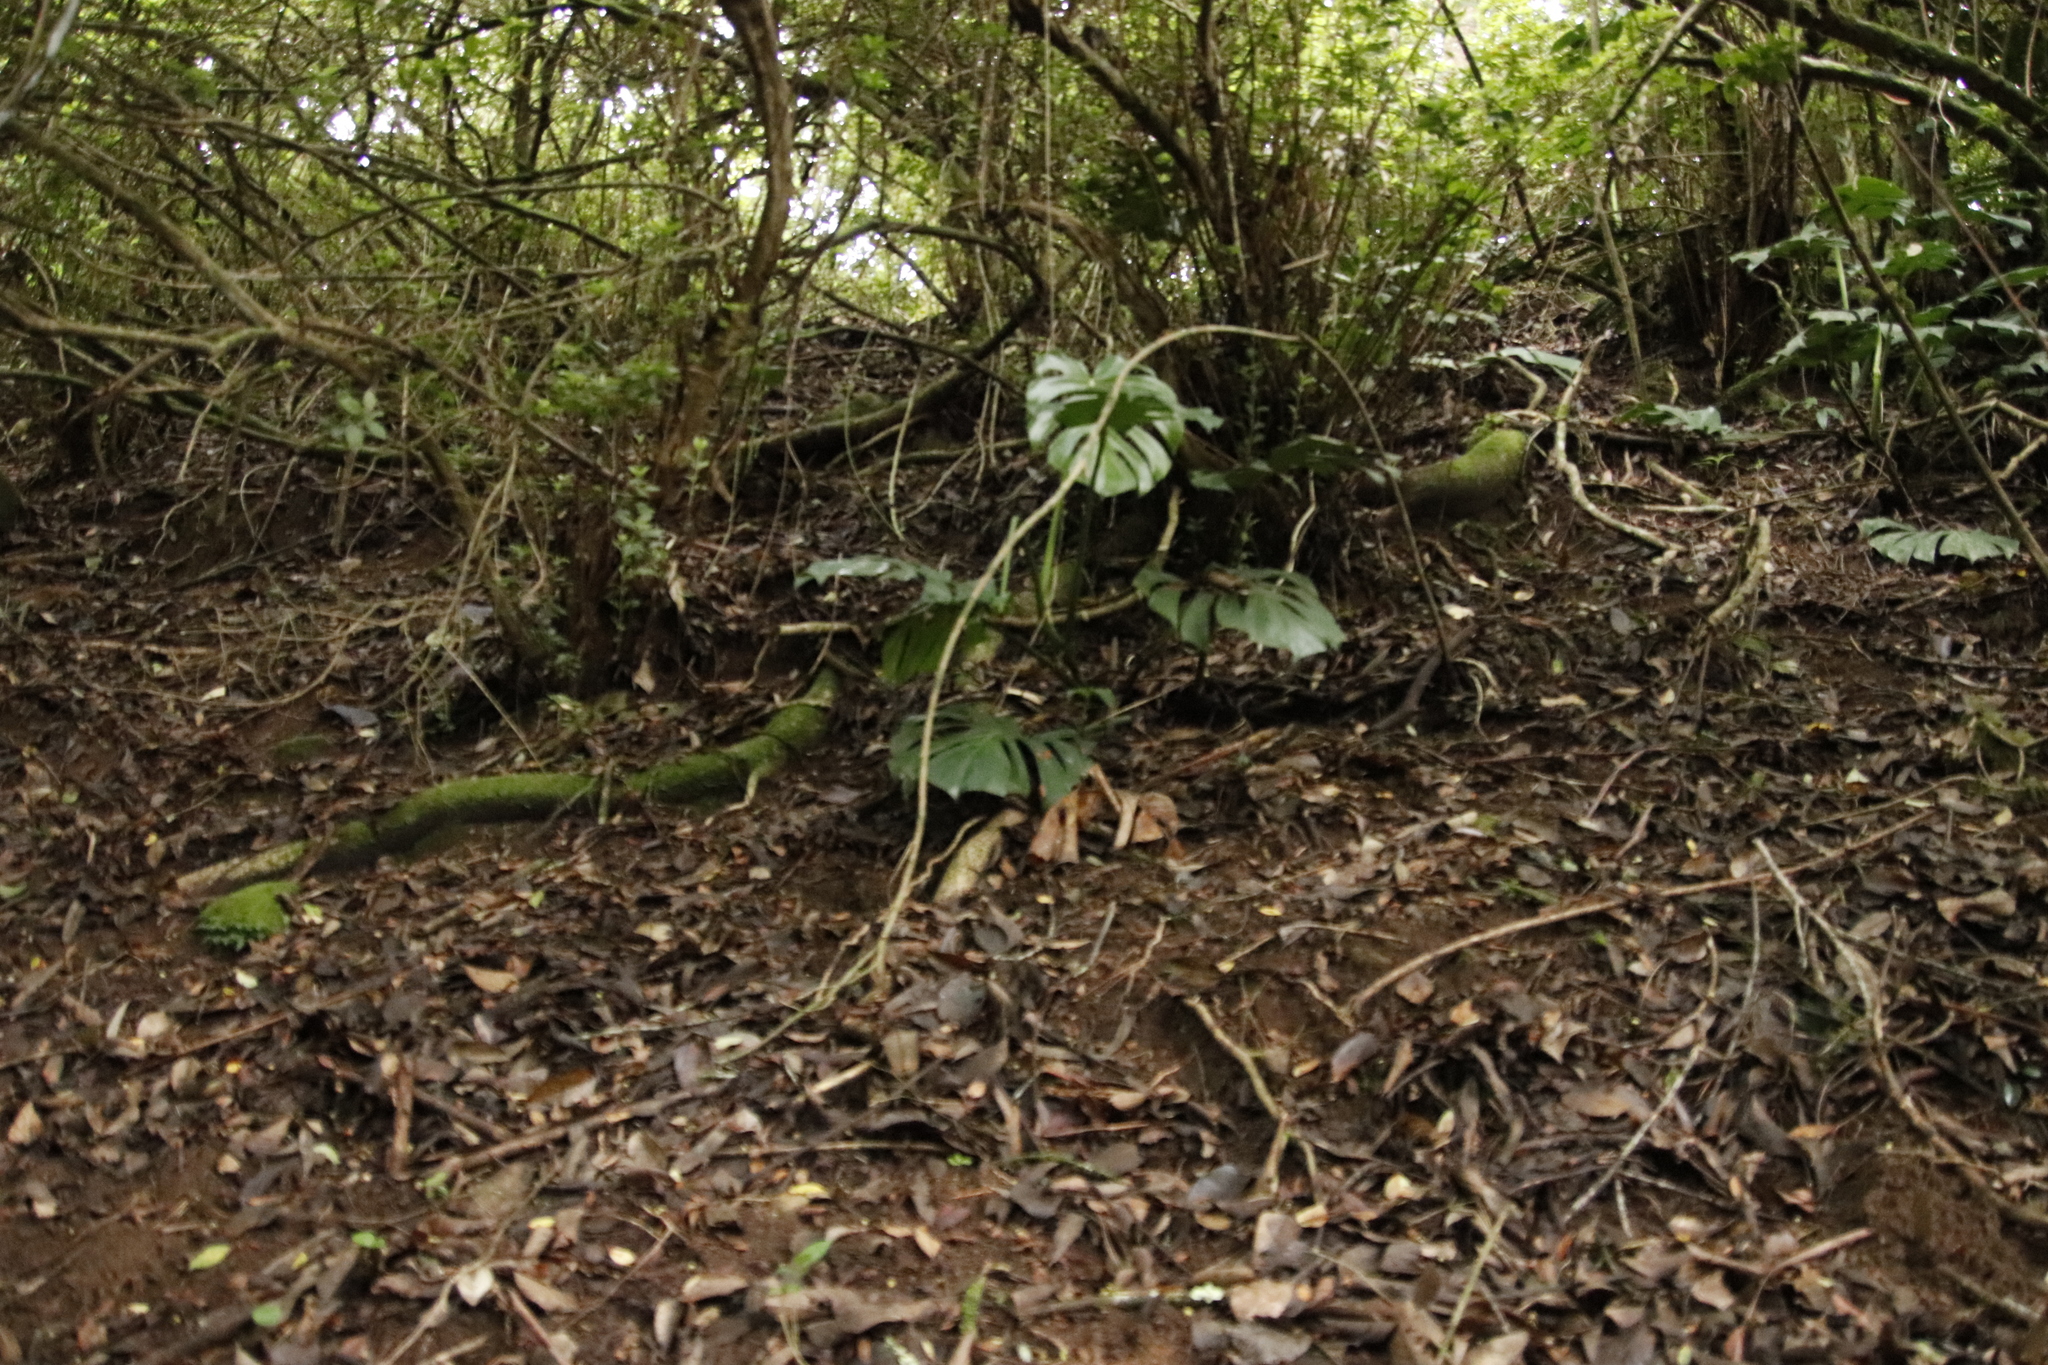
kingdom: Plantae
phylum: Tracheophyta
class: Liliopsida
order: Alismatales
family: Araceae
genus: Monstera
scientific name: Monstera deliciosa
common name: Cut-leaf-philodendron
